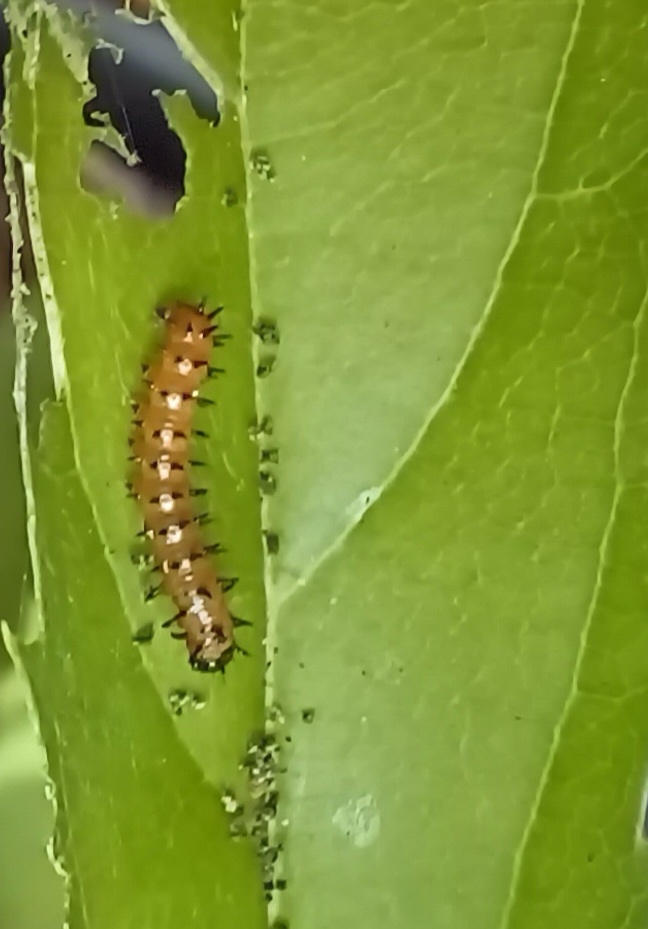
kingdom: Animalia
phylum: Arthropoda
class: Insecta
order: Lepidoptera
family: Nymphalidae
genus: Acraea
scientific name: Acraea horta
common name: Garden acraea
